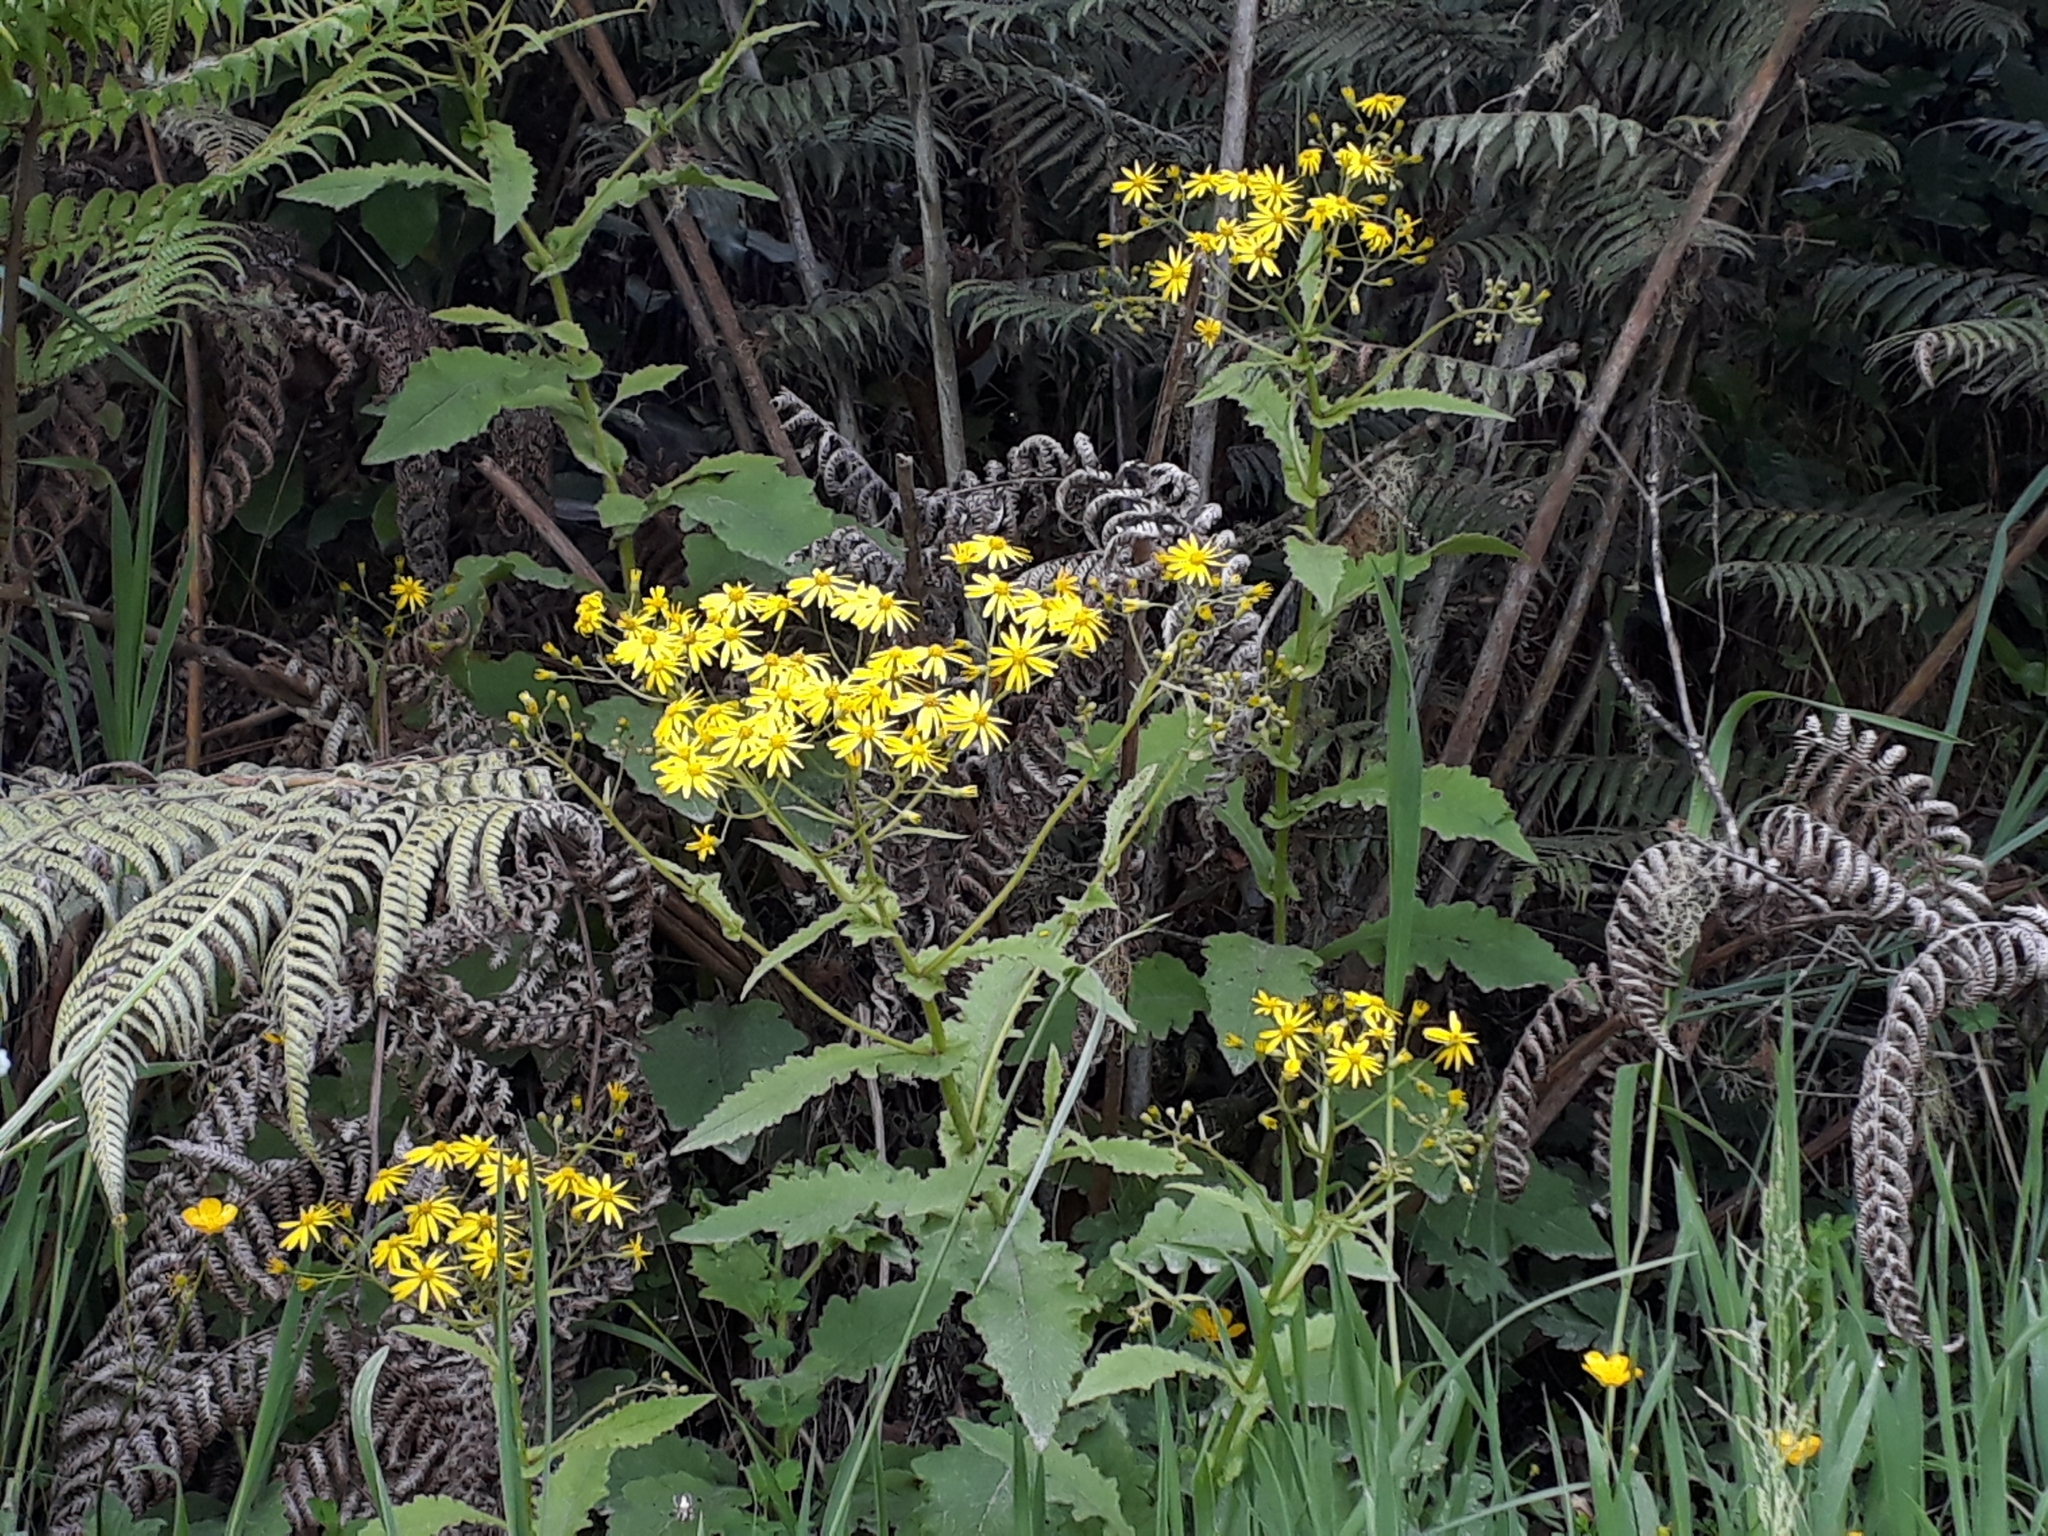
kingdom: Plantae
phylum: Tracheophyta
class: Magnoliopsida
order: Asterales
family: Asteraceae
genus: Senecio
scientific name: Senecio rufiglandulosus
